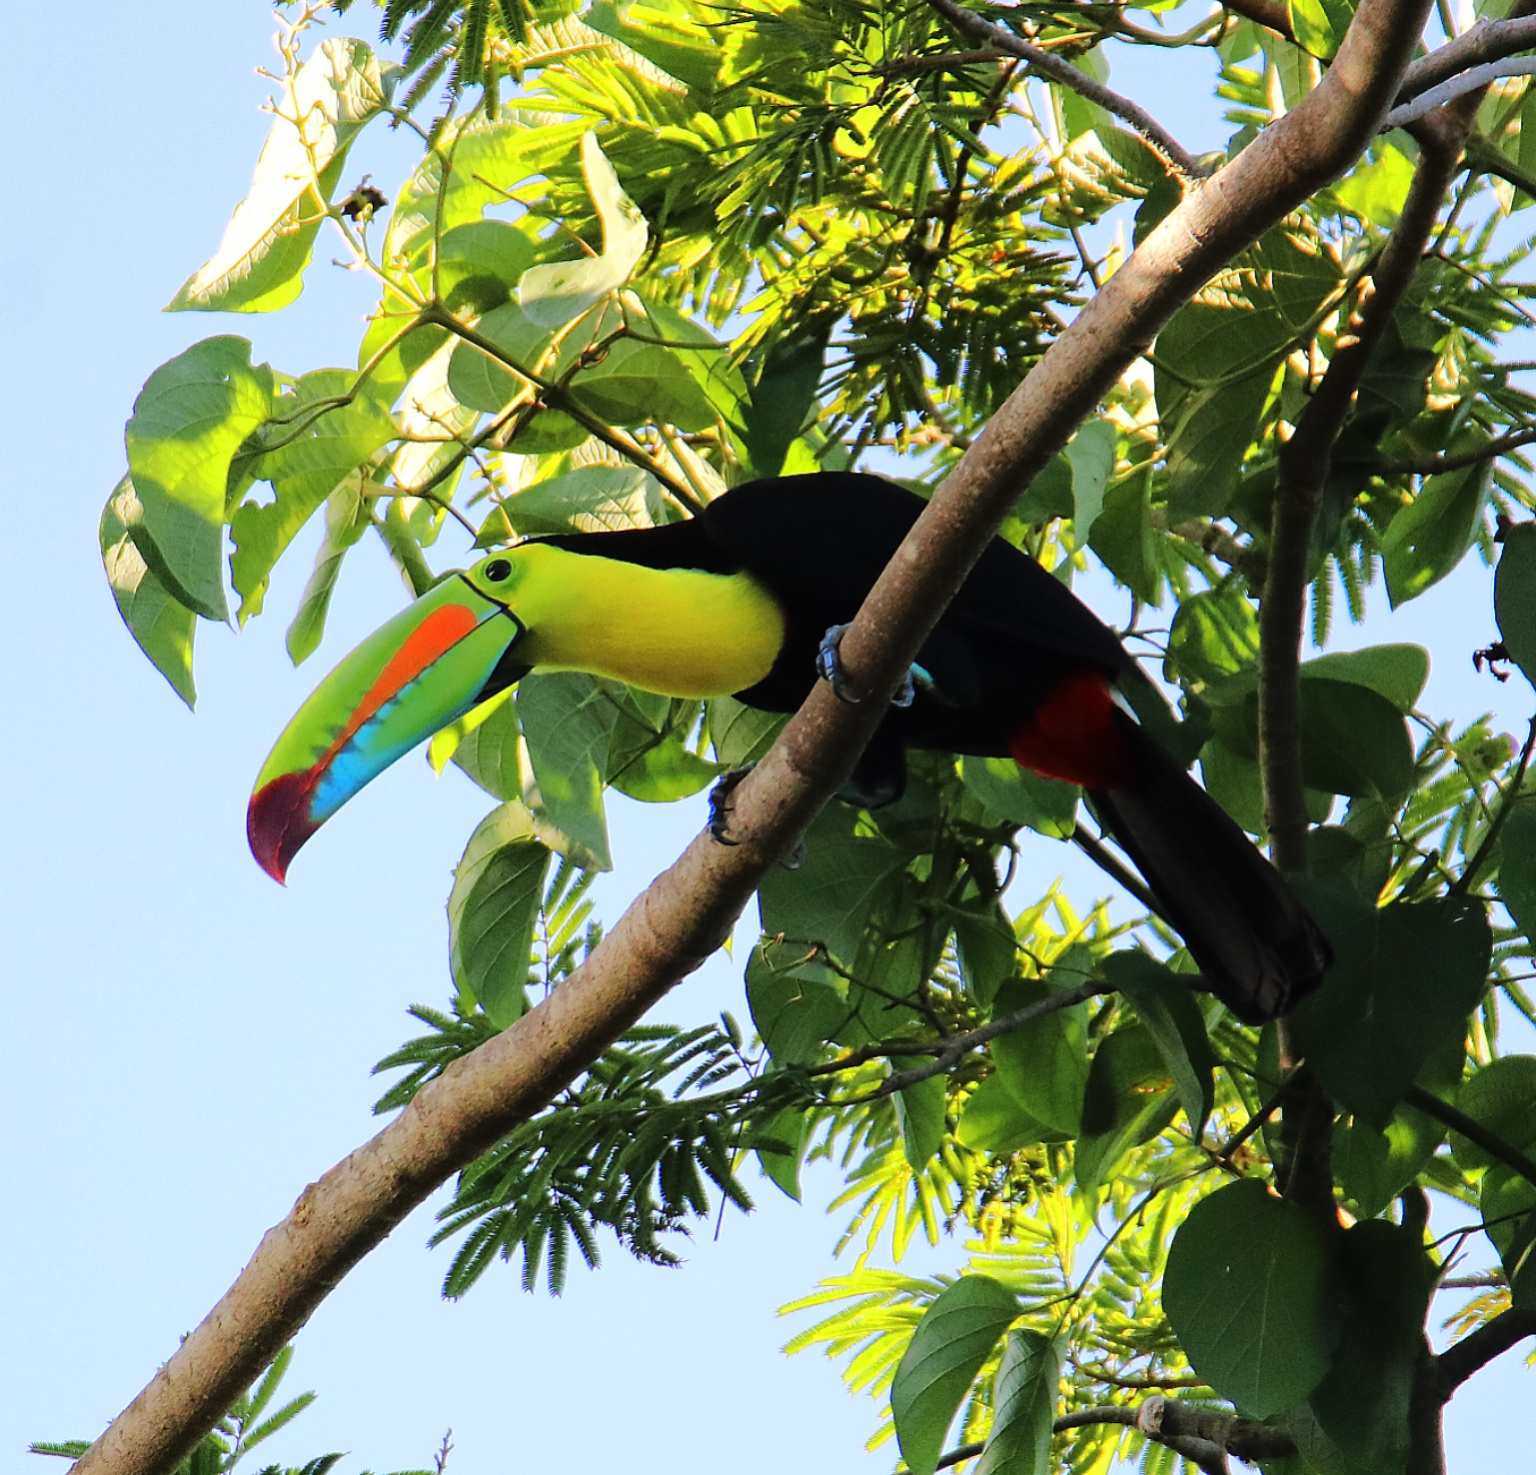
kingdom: Animalia
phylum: Chordata
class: Aves
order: Piciformes
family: Ramphastidae
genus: Ramphastos
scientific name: Ramphastos sulfuratus
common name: Keel-billed toucan
